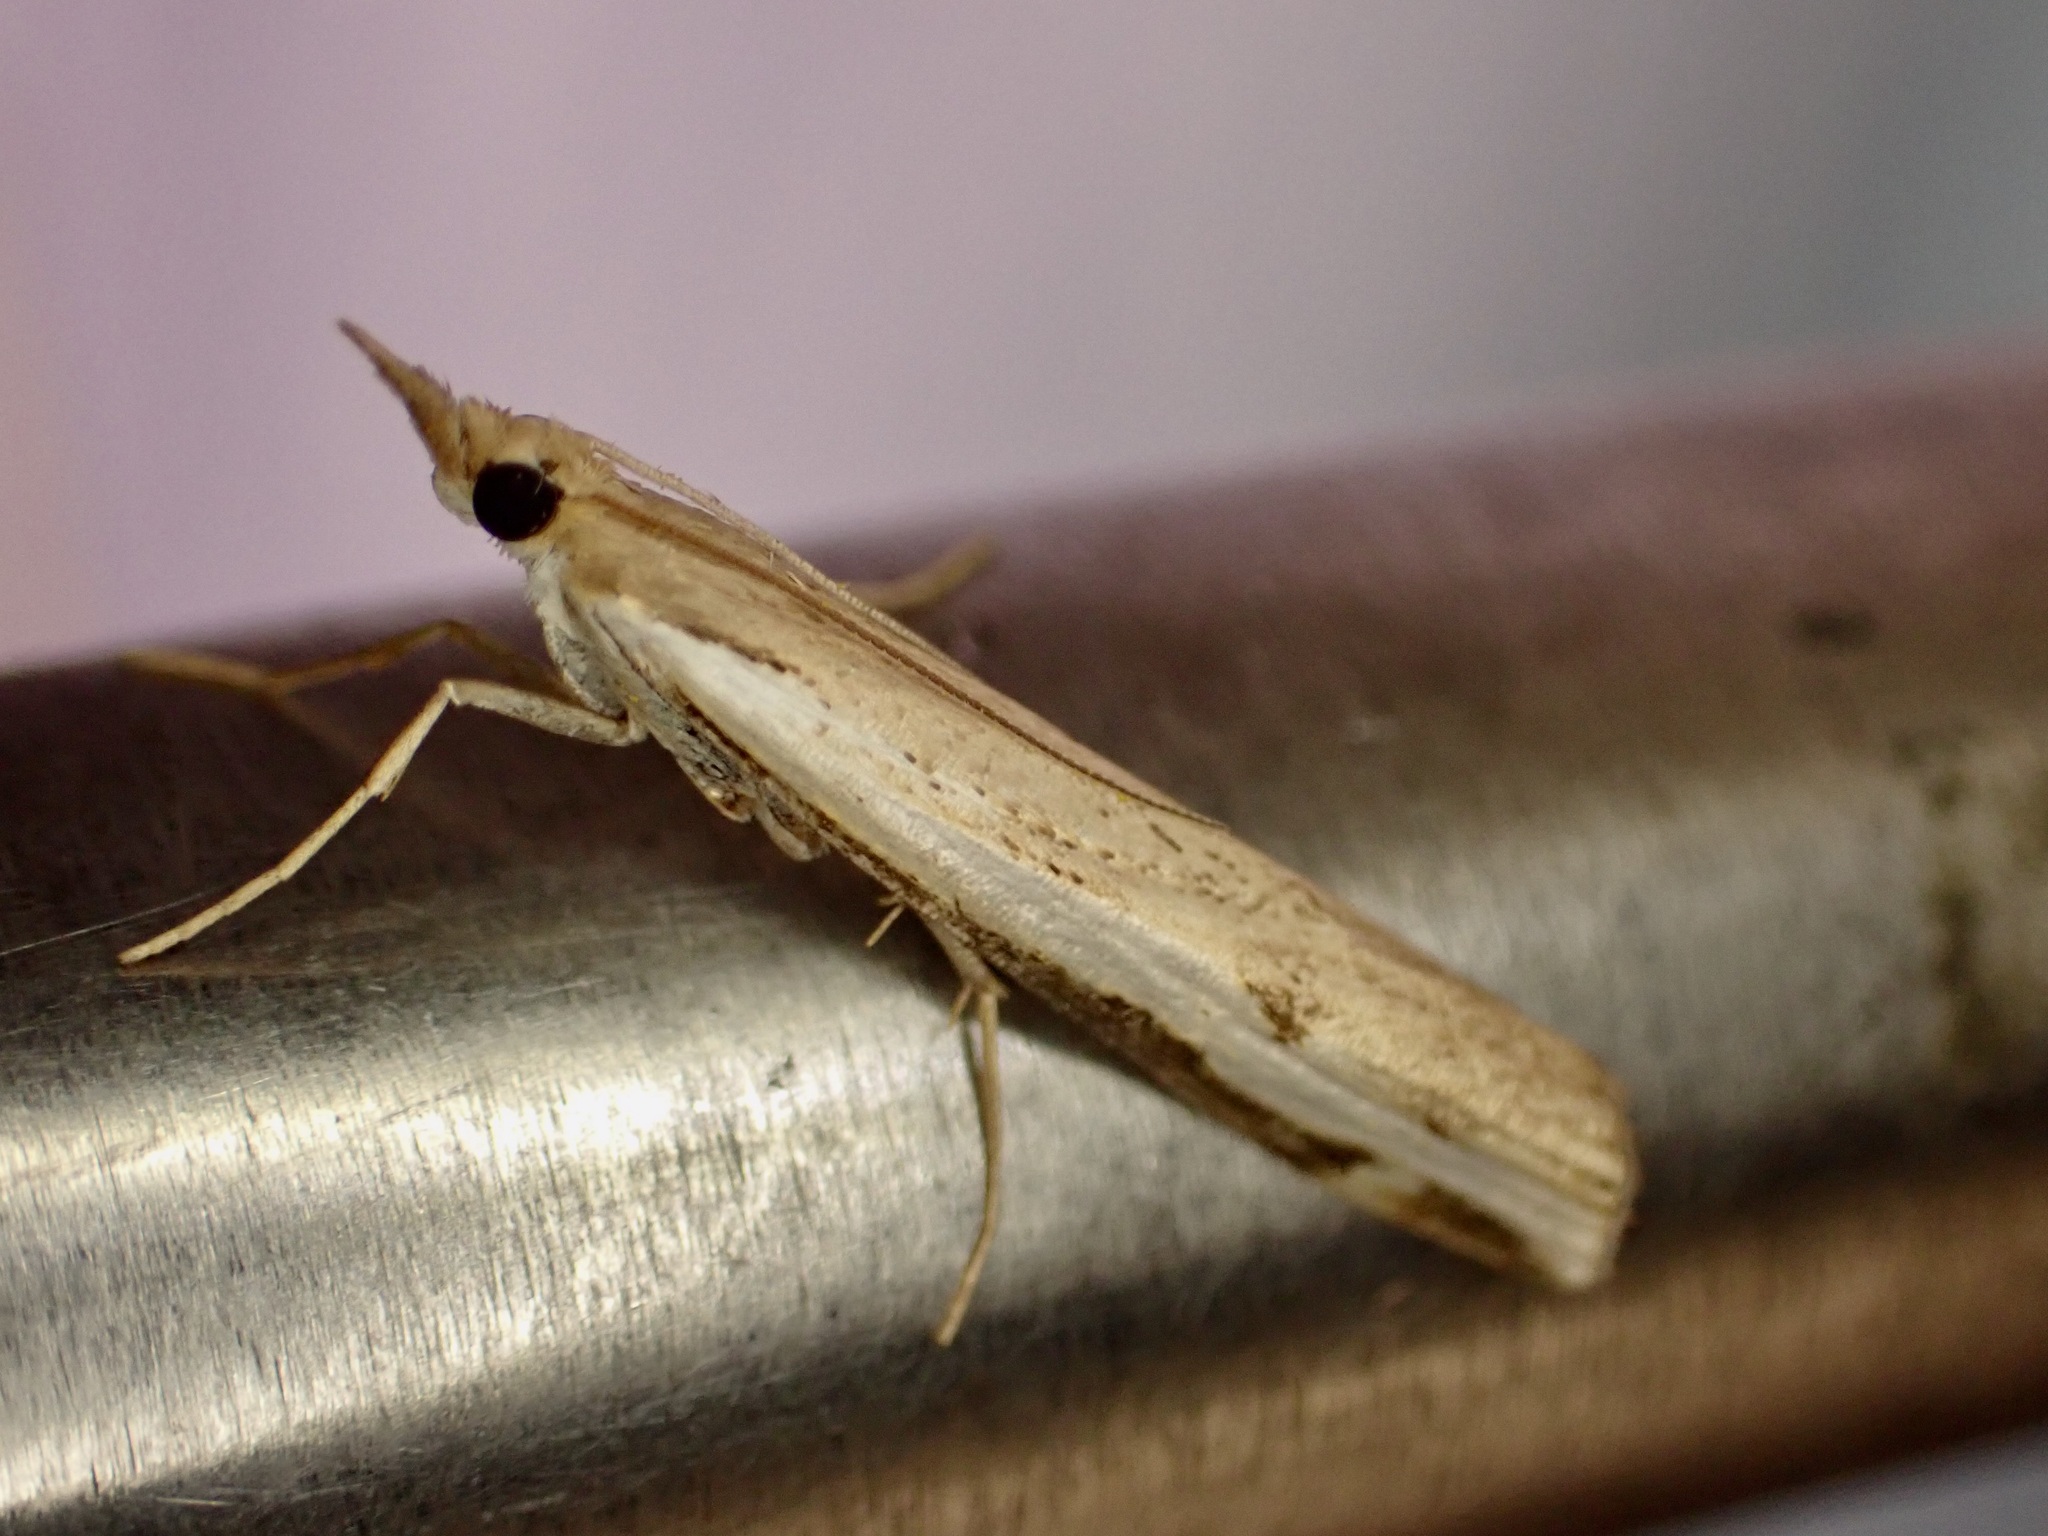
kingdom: Animalia
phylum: Arthropoda
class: Insecta
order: Lepidoptera
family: Crambidae
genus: Orocrambus
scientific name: Orocrambus flexuosellus
